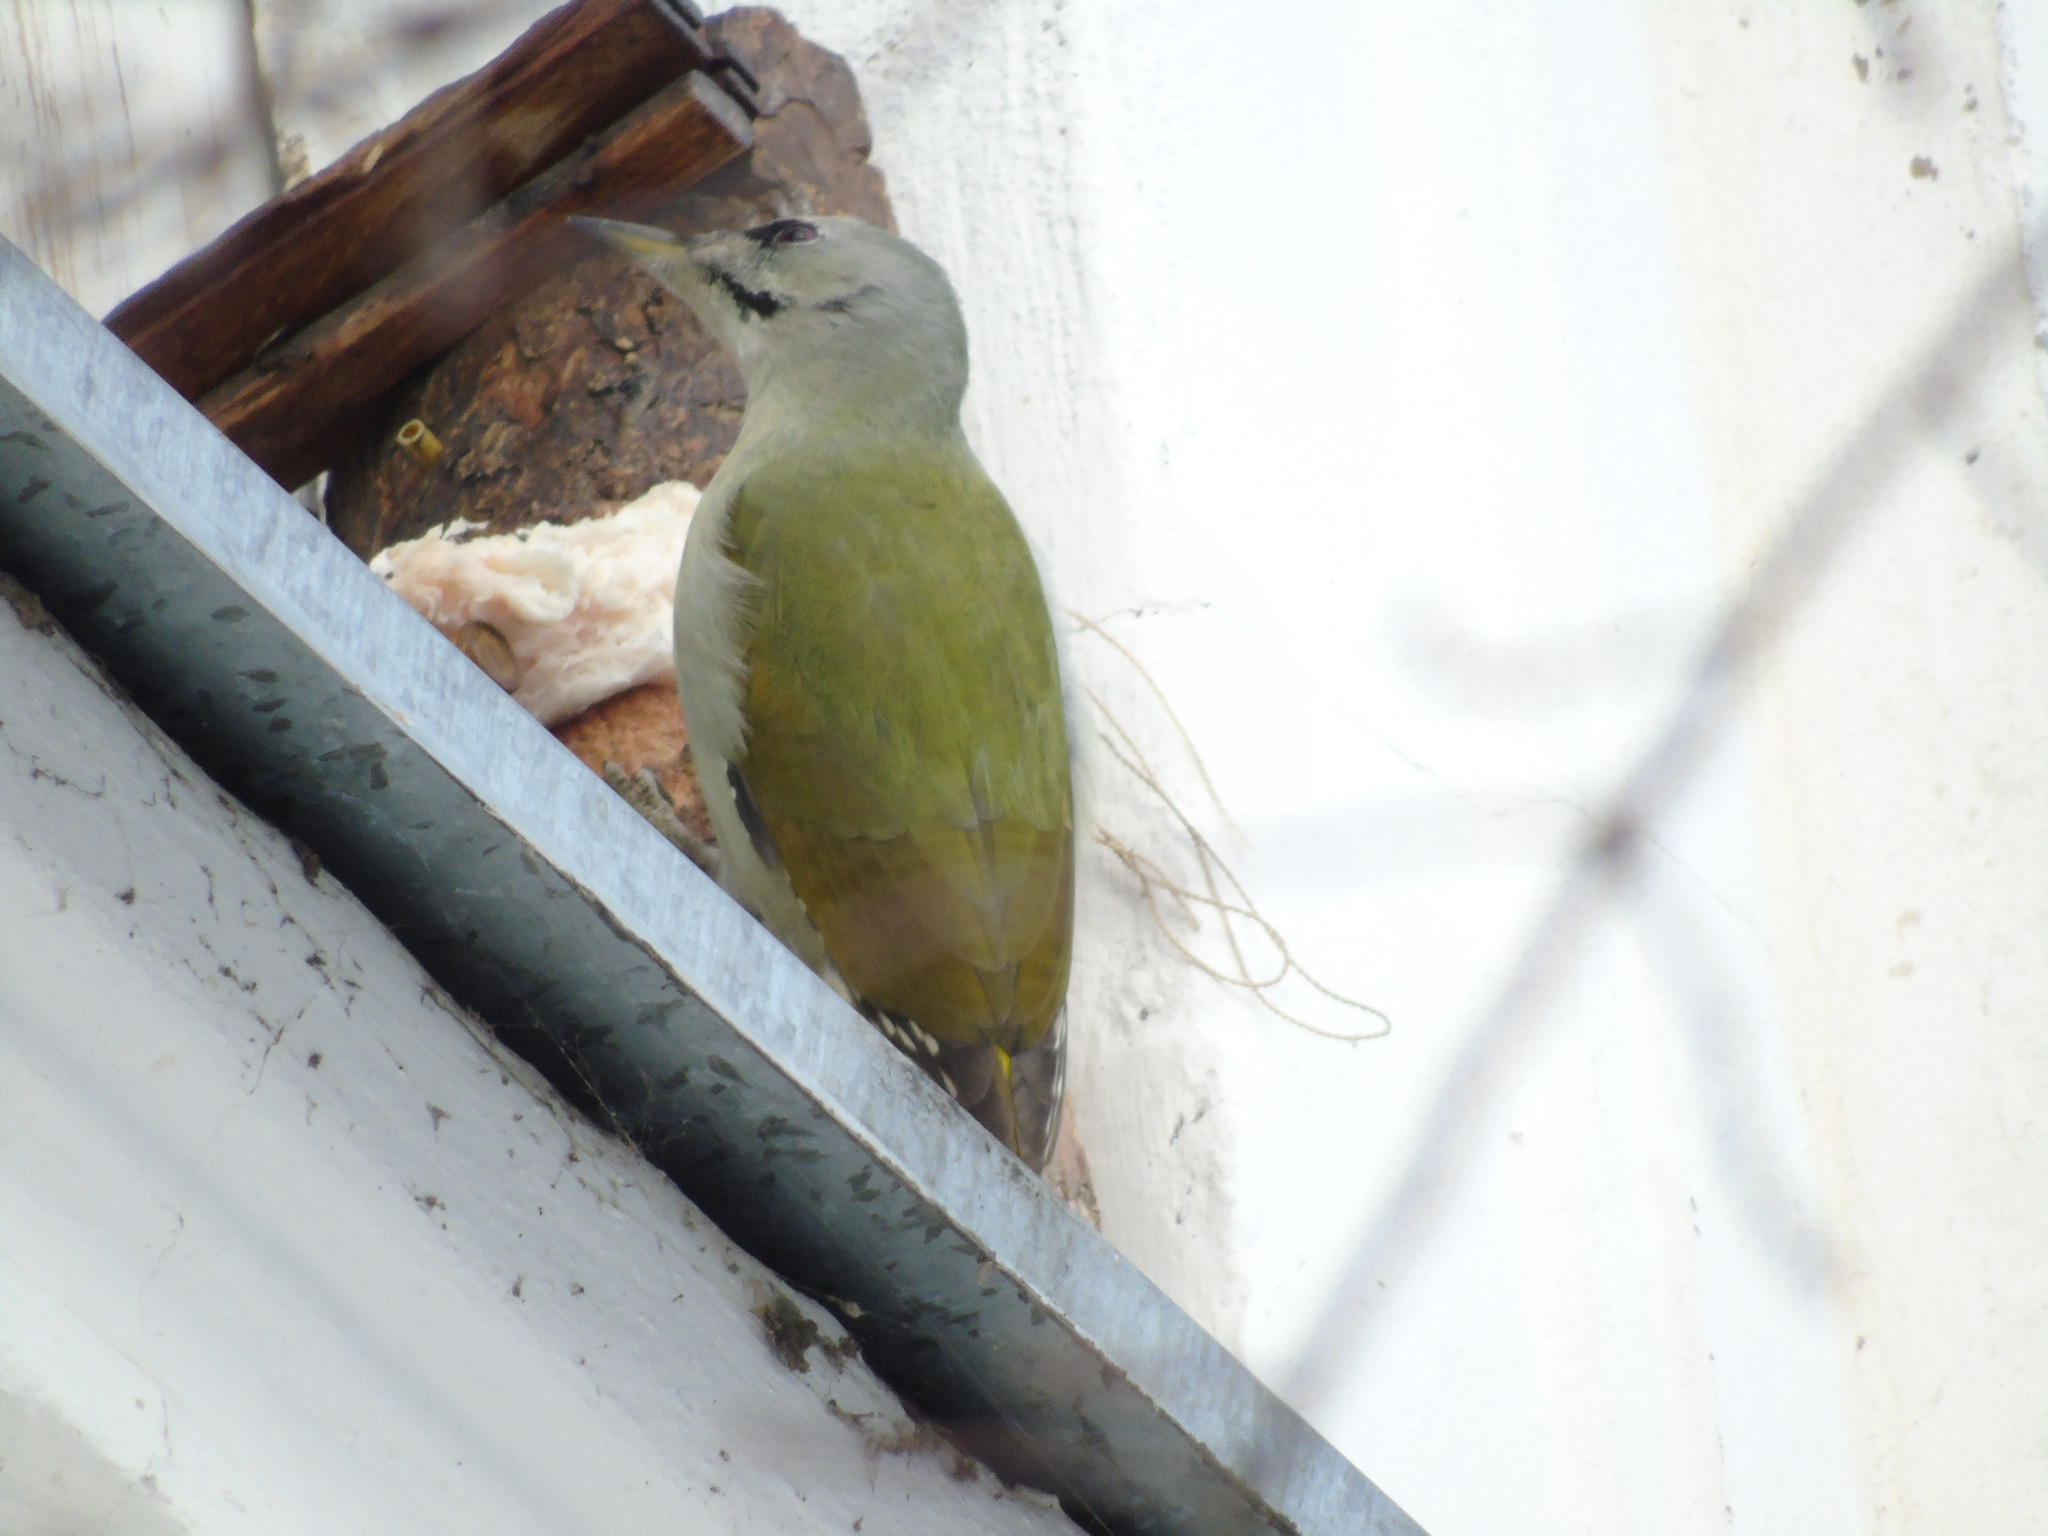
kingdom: Animalia
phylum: Chordata
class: Aves
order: Piciformes
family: Picidae
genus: Picus
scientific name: Picus canus
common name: Grey-headed woodpecker
